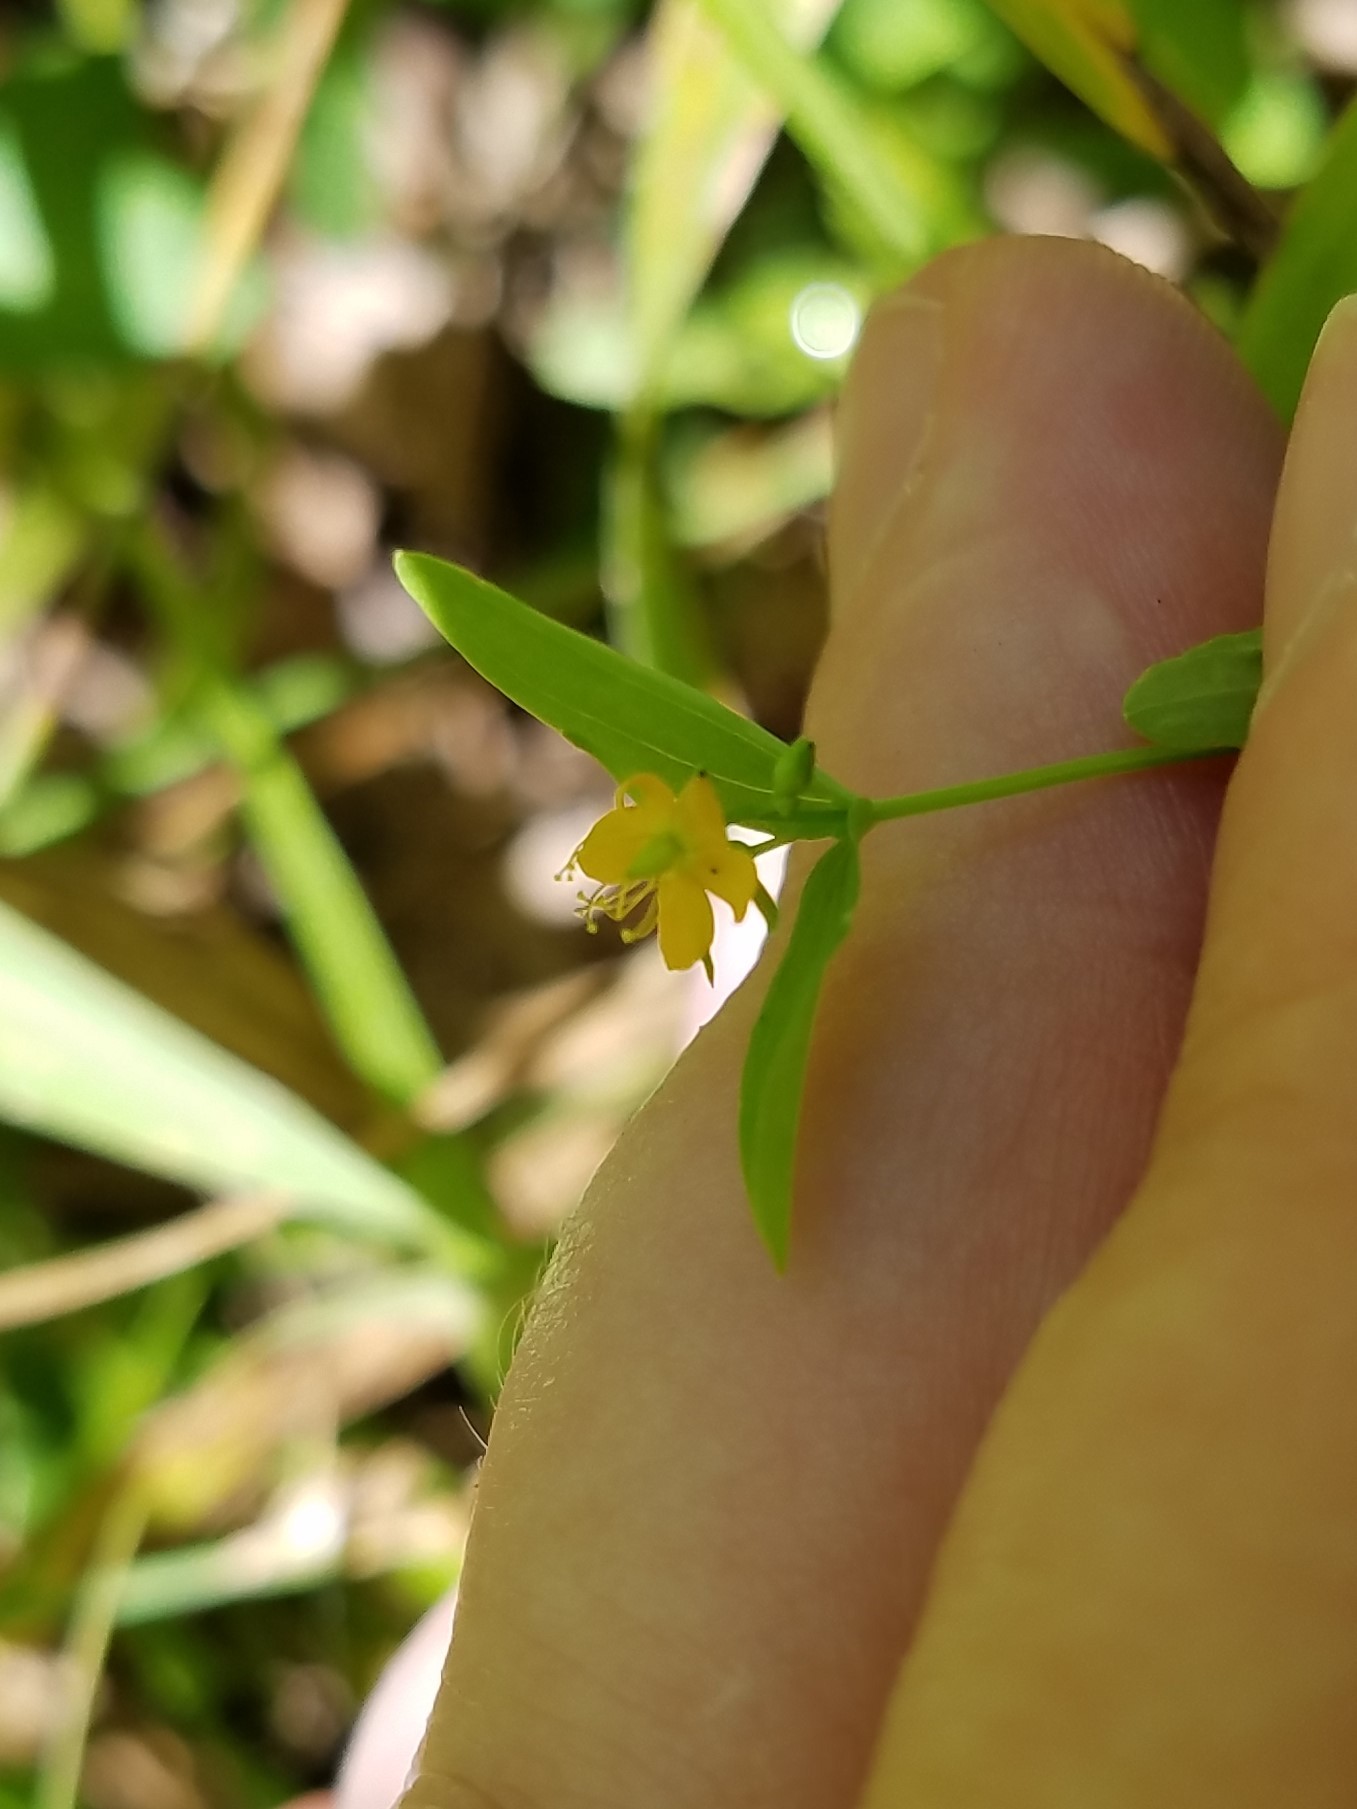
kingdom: Plantae
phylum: Tracheophyta
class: Magnoliopsida
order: Malpighiales
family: Hypericaceae
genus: Hypericum
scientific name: Hypericum mutilum
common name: Dwarf st. john's-wort
